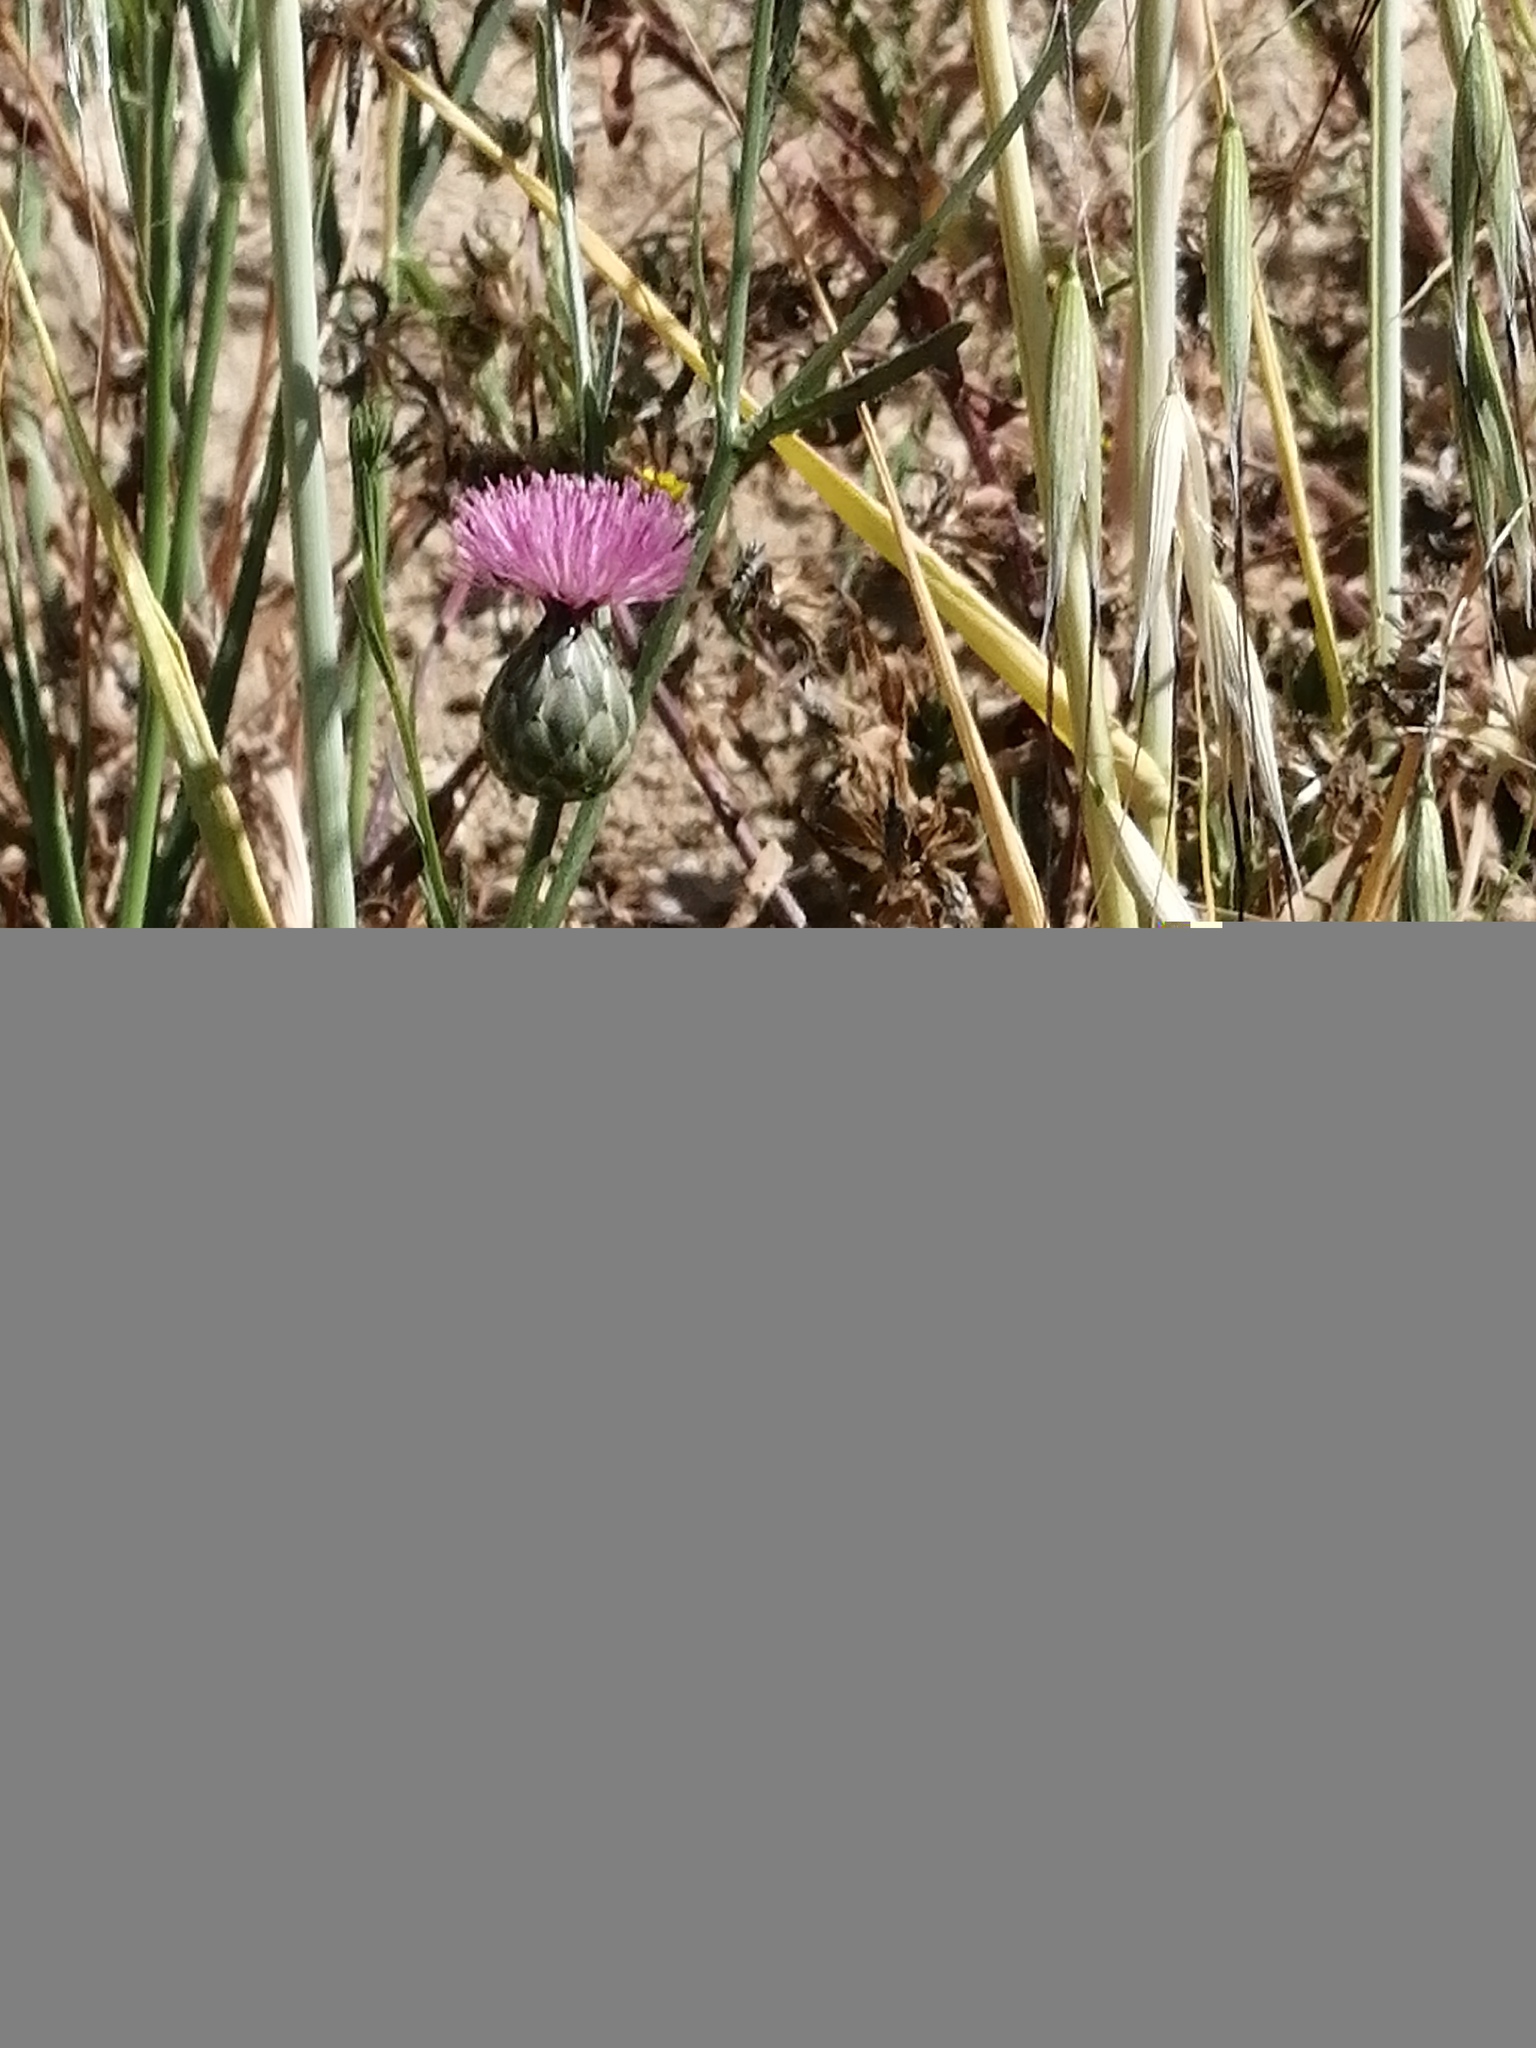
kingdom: Plantae
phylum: Tracheophyta
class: Magnoliopsida
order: Asterales
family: Asteraceae
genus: Mantisalca
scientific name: Mantisalca salmantica
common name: Dagger flower
